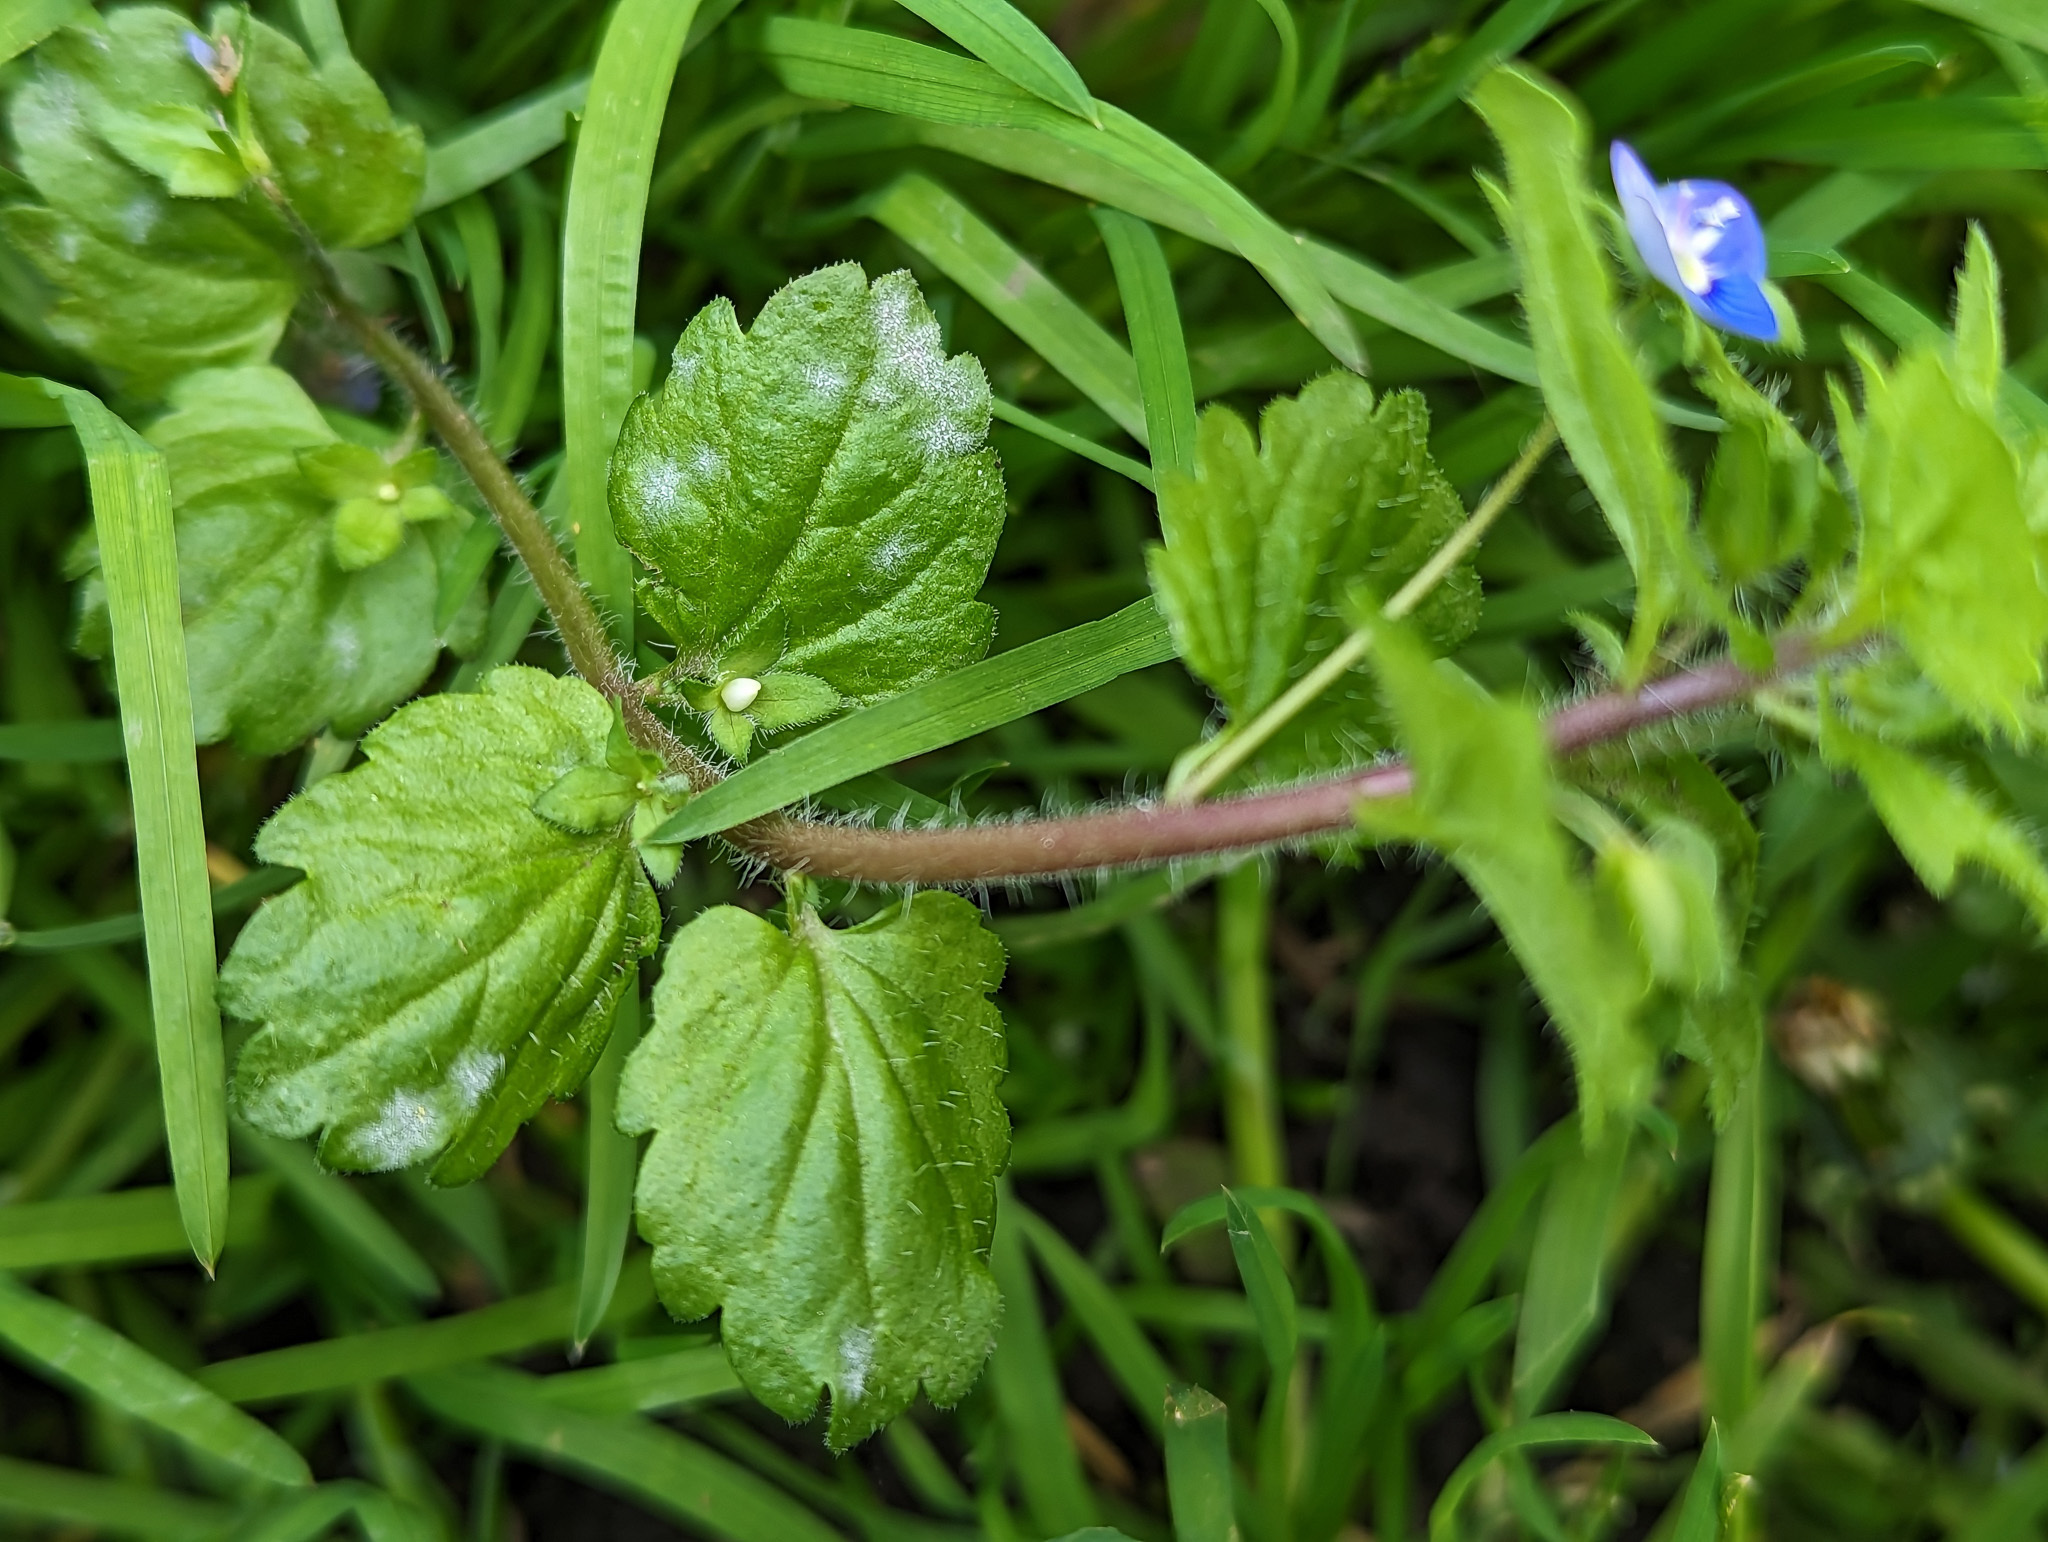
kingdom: Plantae
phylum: Tracheophyta
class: Magnoliopsida
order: Lamiales
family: Plantaginaceae
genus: Veronica
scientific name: Veronica persica
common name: Common field-speedwell
